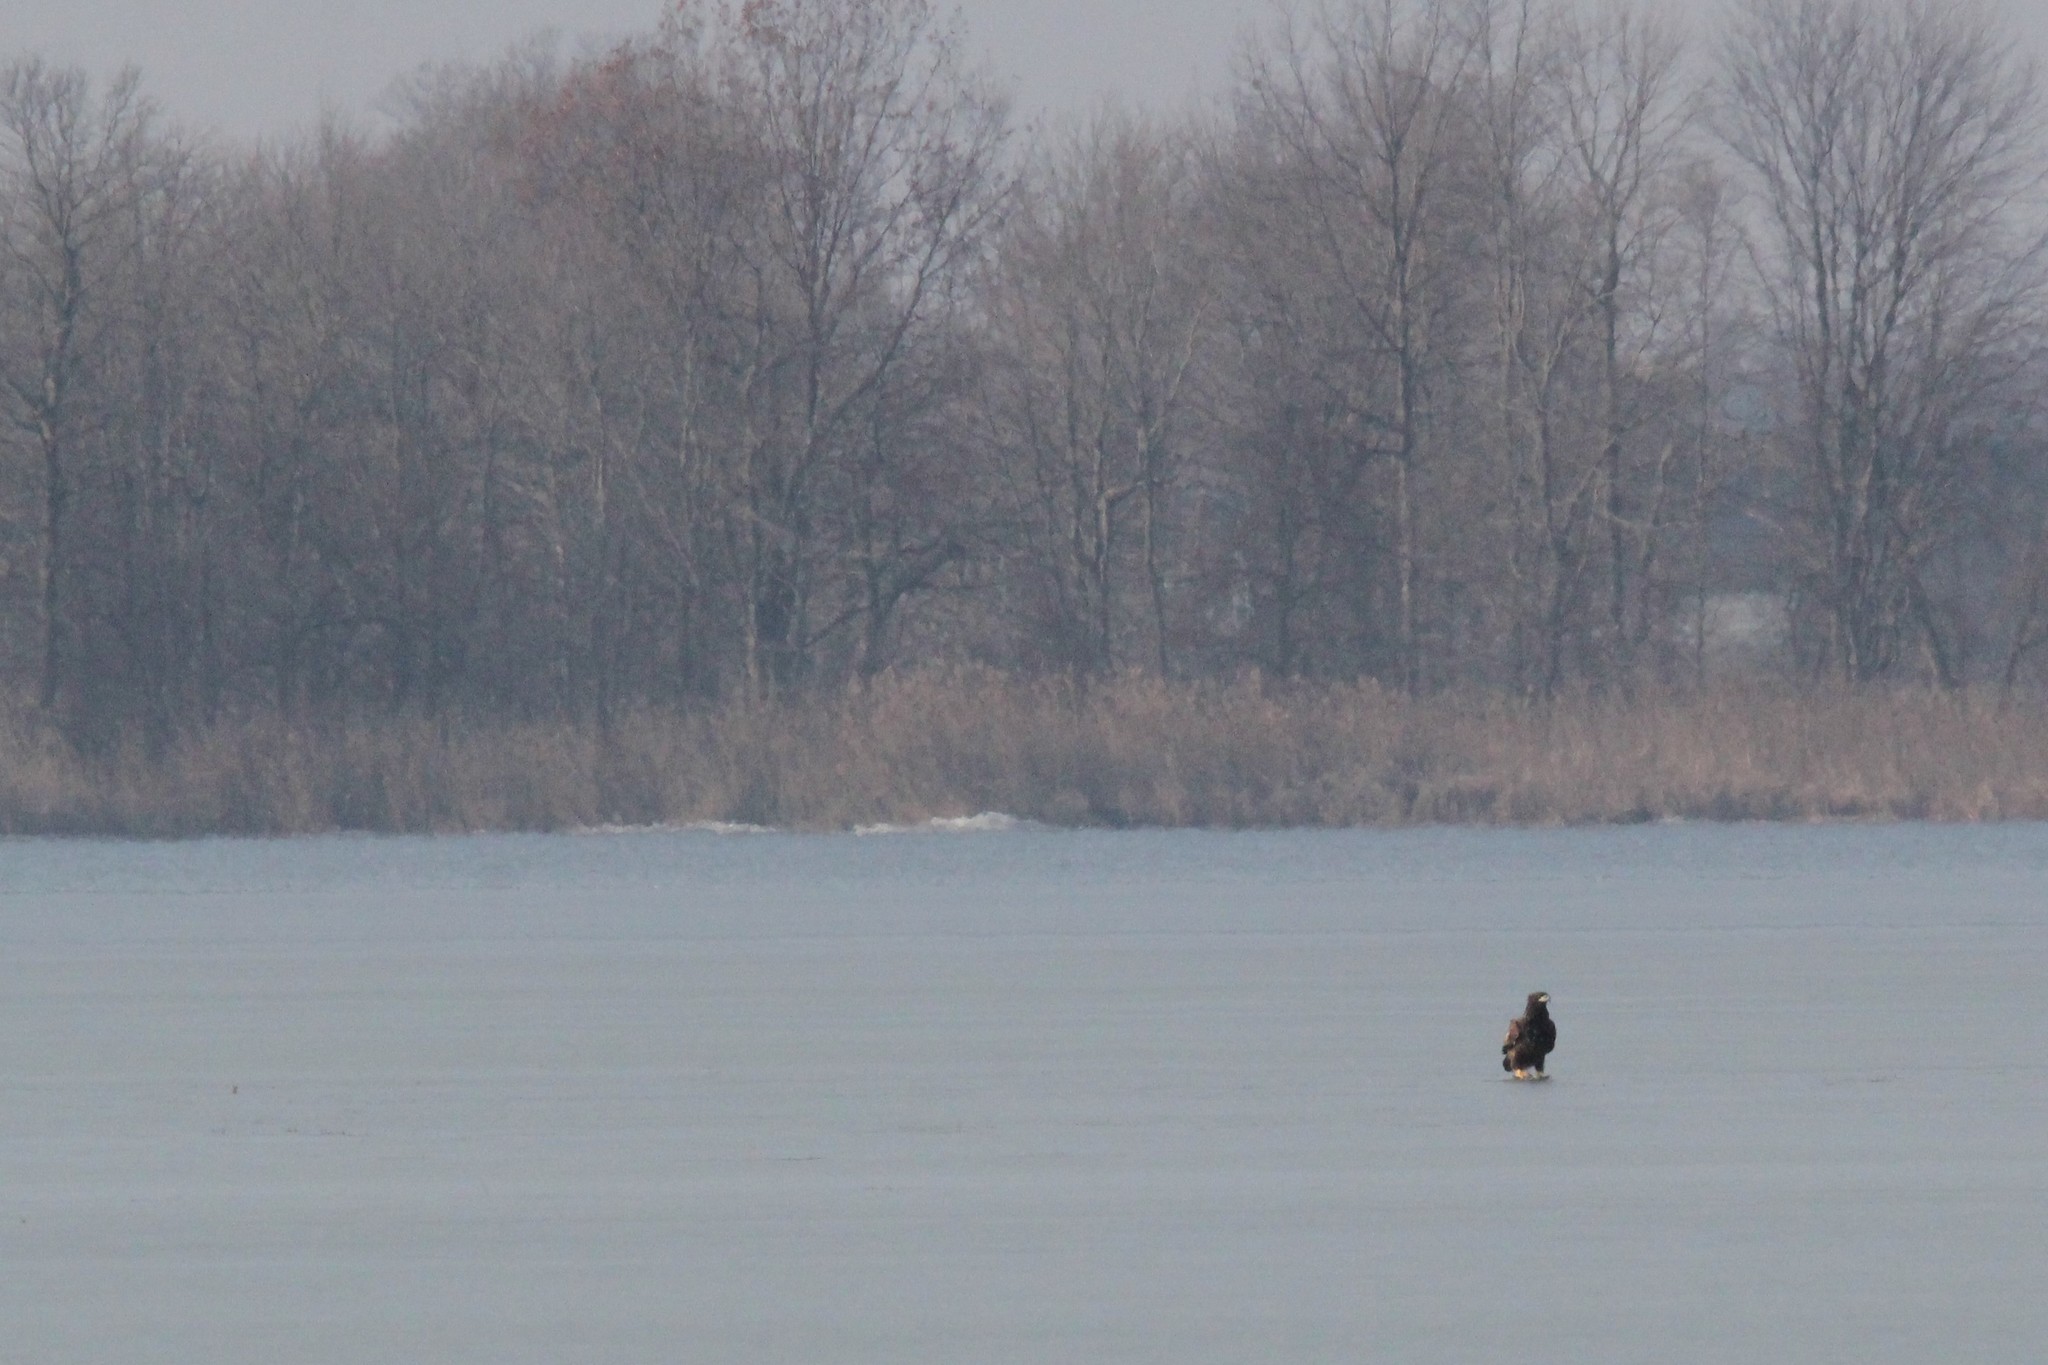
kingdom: Animalia
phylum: Chordata
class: Aves
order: Accipitriformes
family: Accipitridae
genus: Haliaeetus
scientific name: Haliaeetus leucocephalus
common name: Bald eagle
